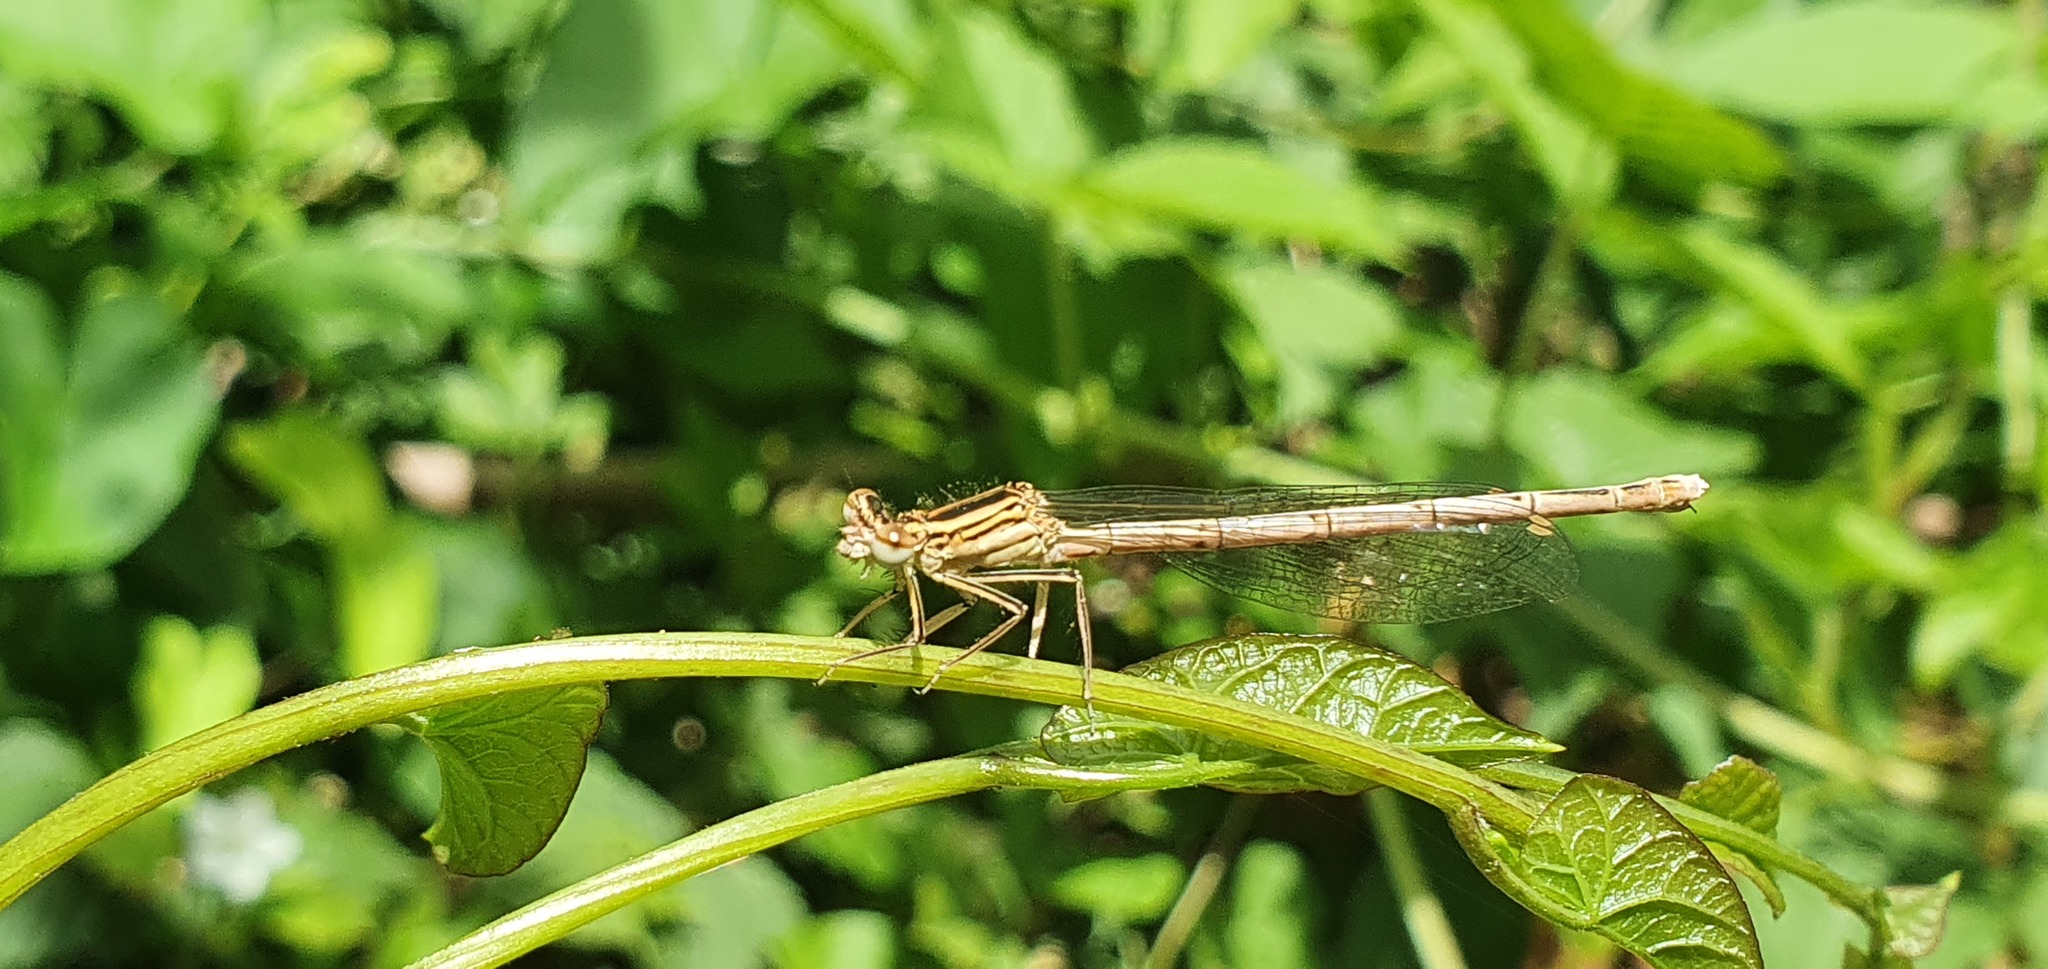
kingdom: Animalia
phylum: Arthropoda
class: Insecta
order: Odonata
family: Platycnemididae
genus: Platycnemis
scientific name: Platycnemis pennipes
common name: White-legged damselfly
